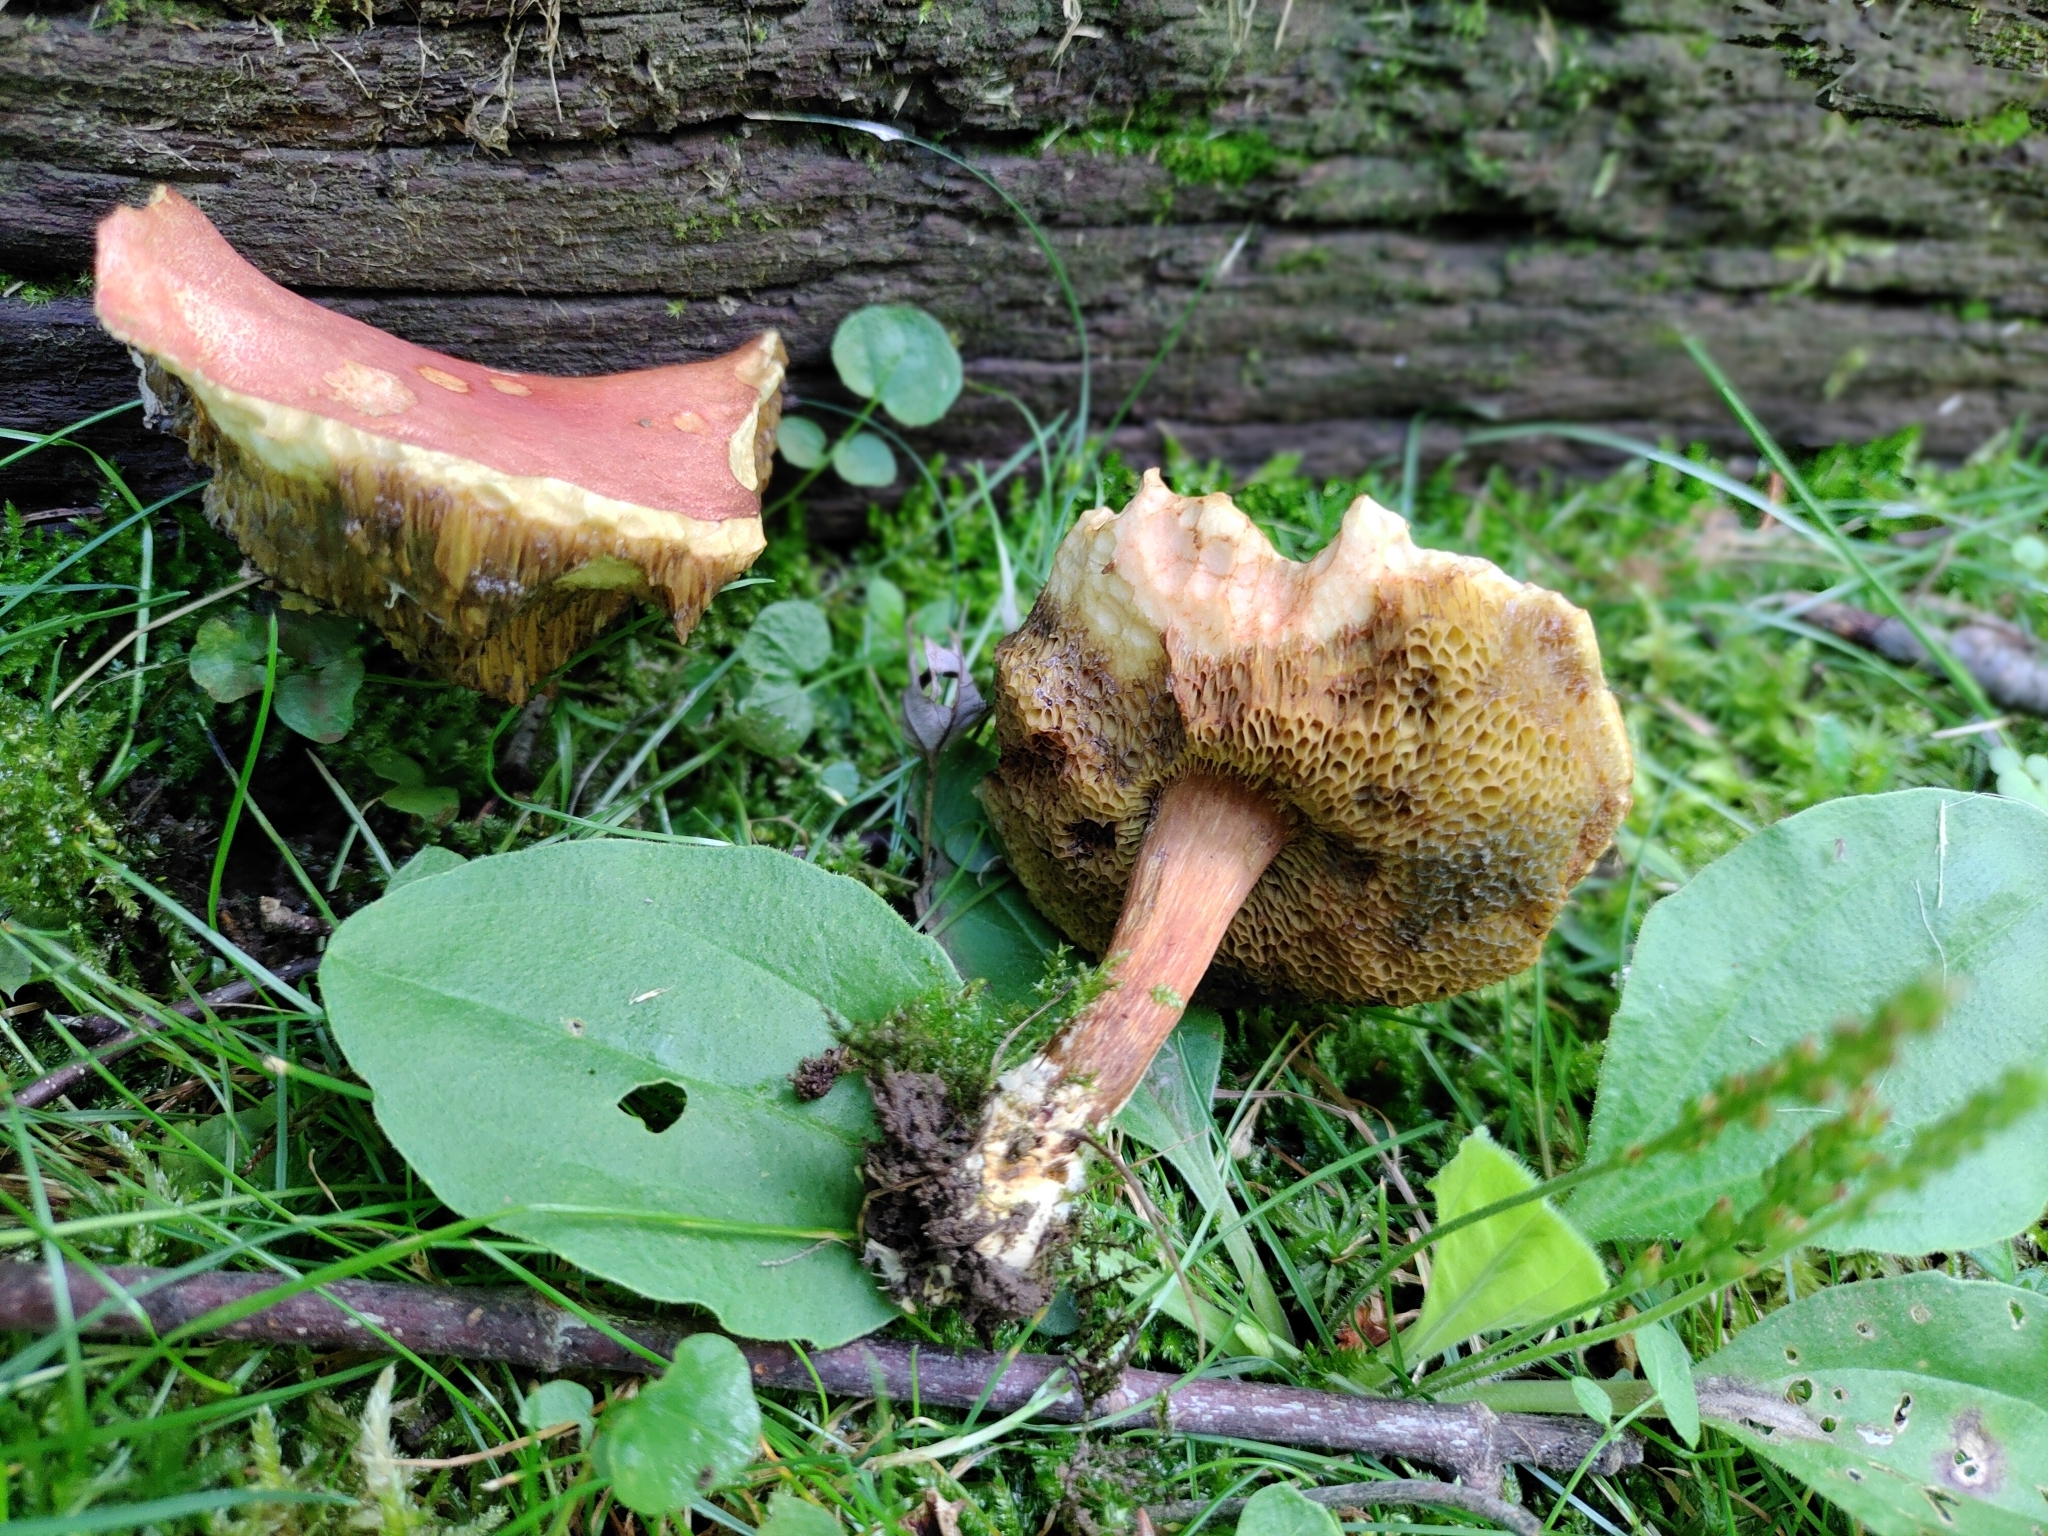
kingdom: Fungi
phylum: Basidiomycota
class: Agaricomycetes
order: Boletales
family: Boletaceae
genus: Xerocomellus
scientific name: Xerocomellus truncatus
